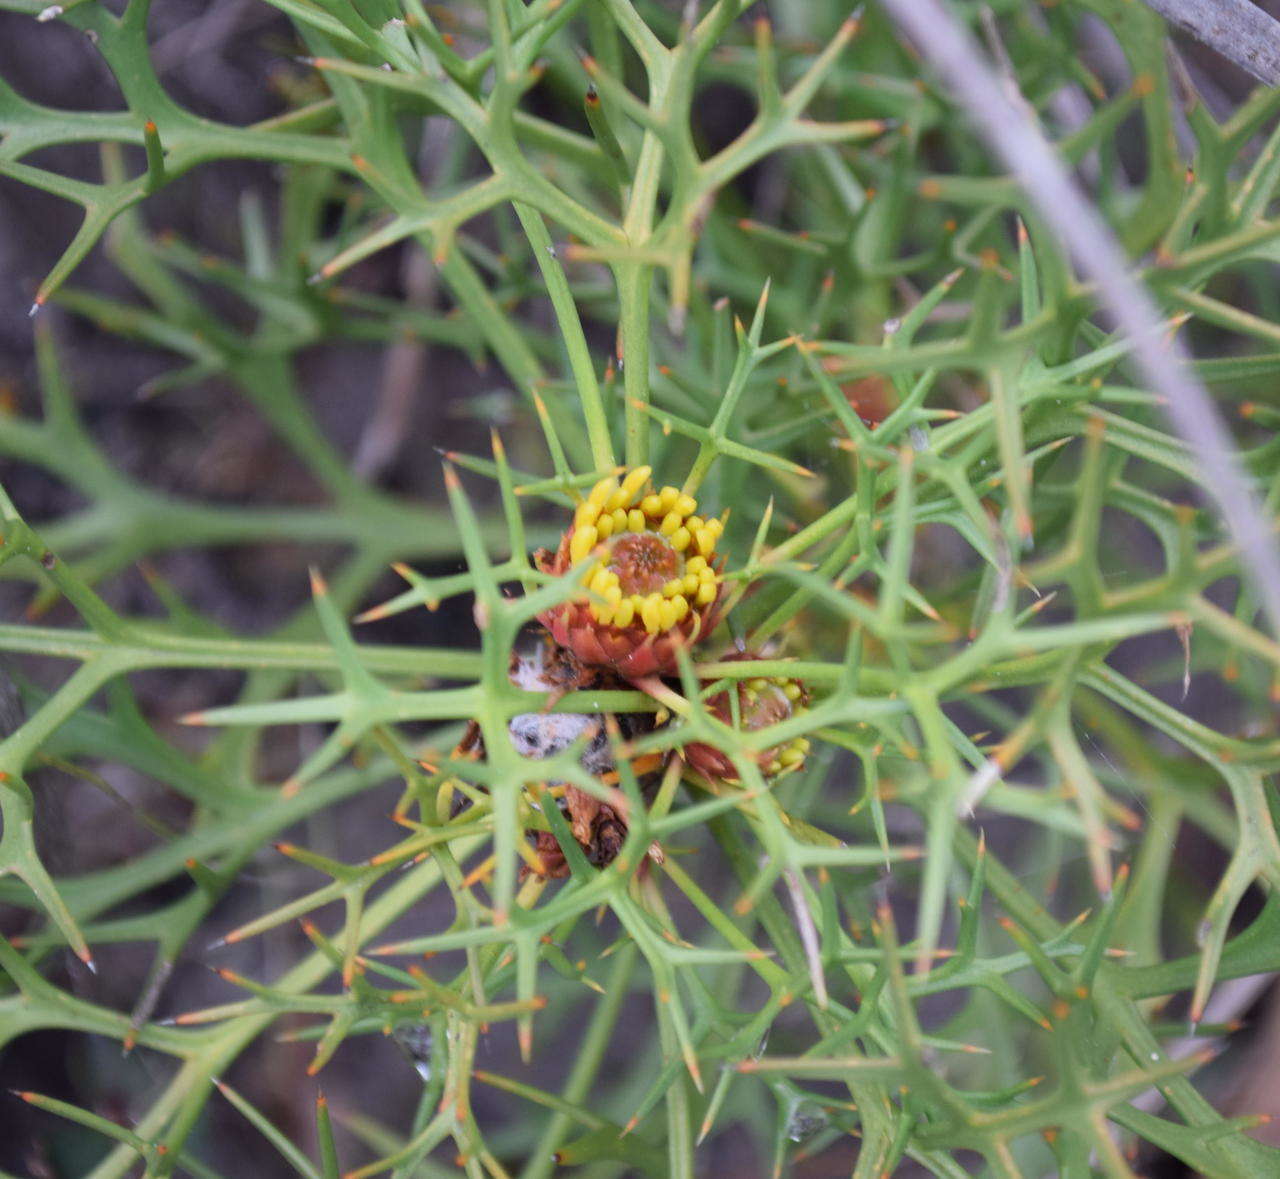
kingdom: Plantae
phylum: Tracheophyta
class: Magnoliopsida
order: Proteales
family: Proteaceae
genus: Isopogon
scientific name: Isopogon ceratophyllus
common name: Horny cone-bush
